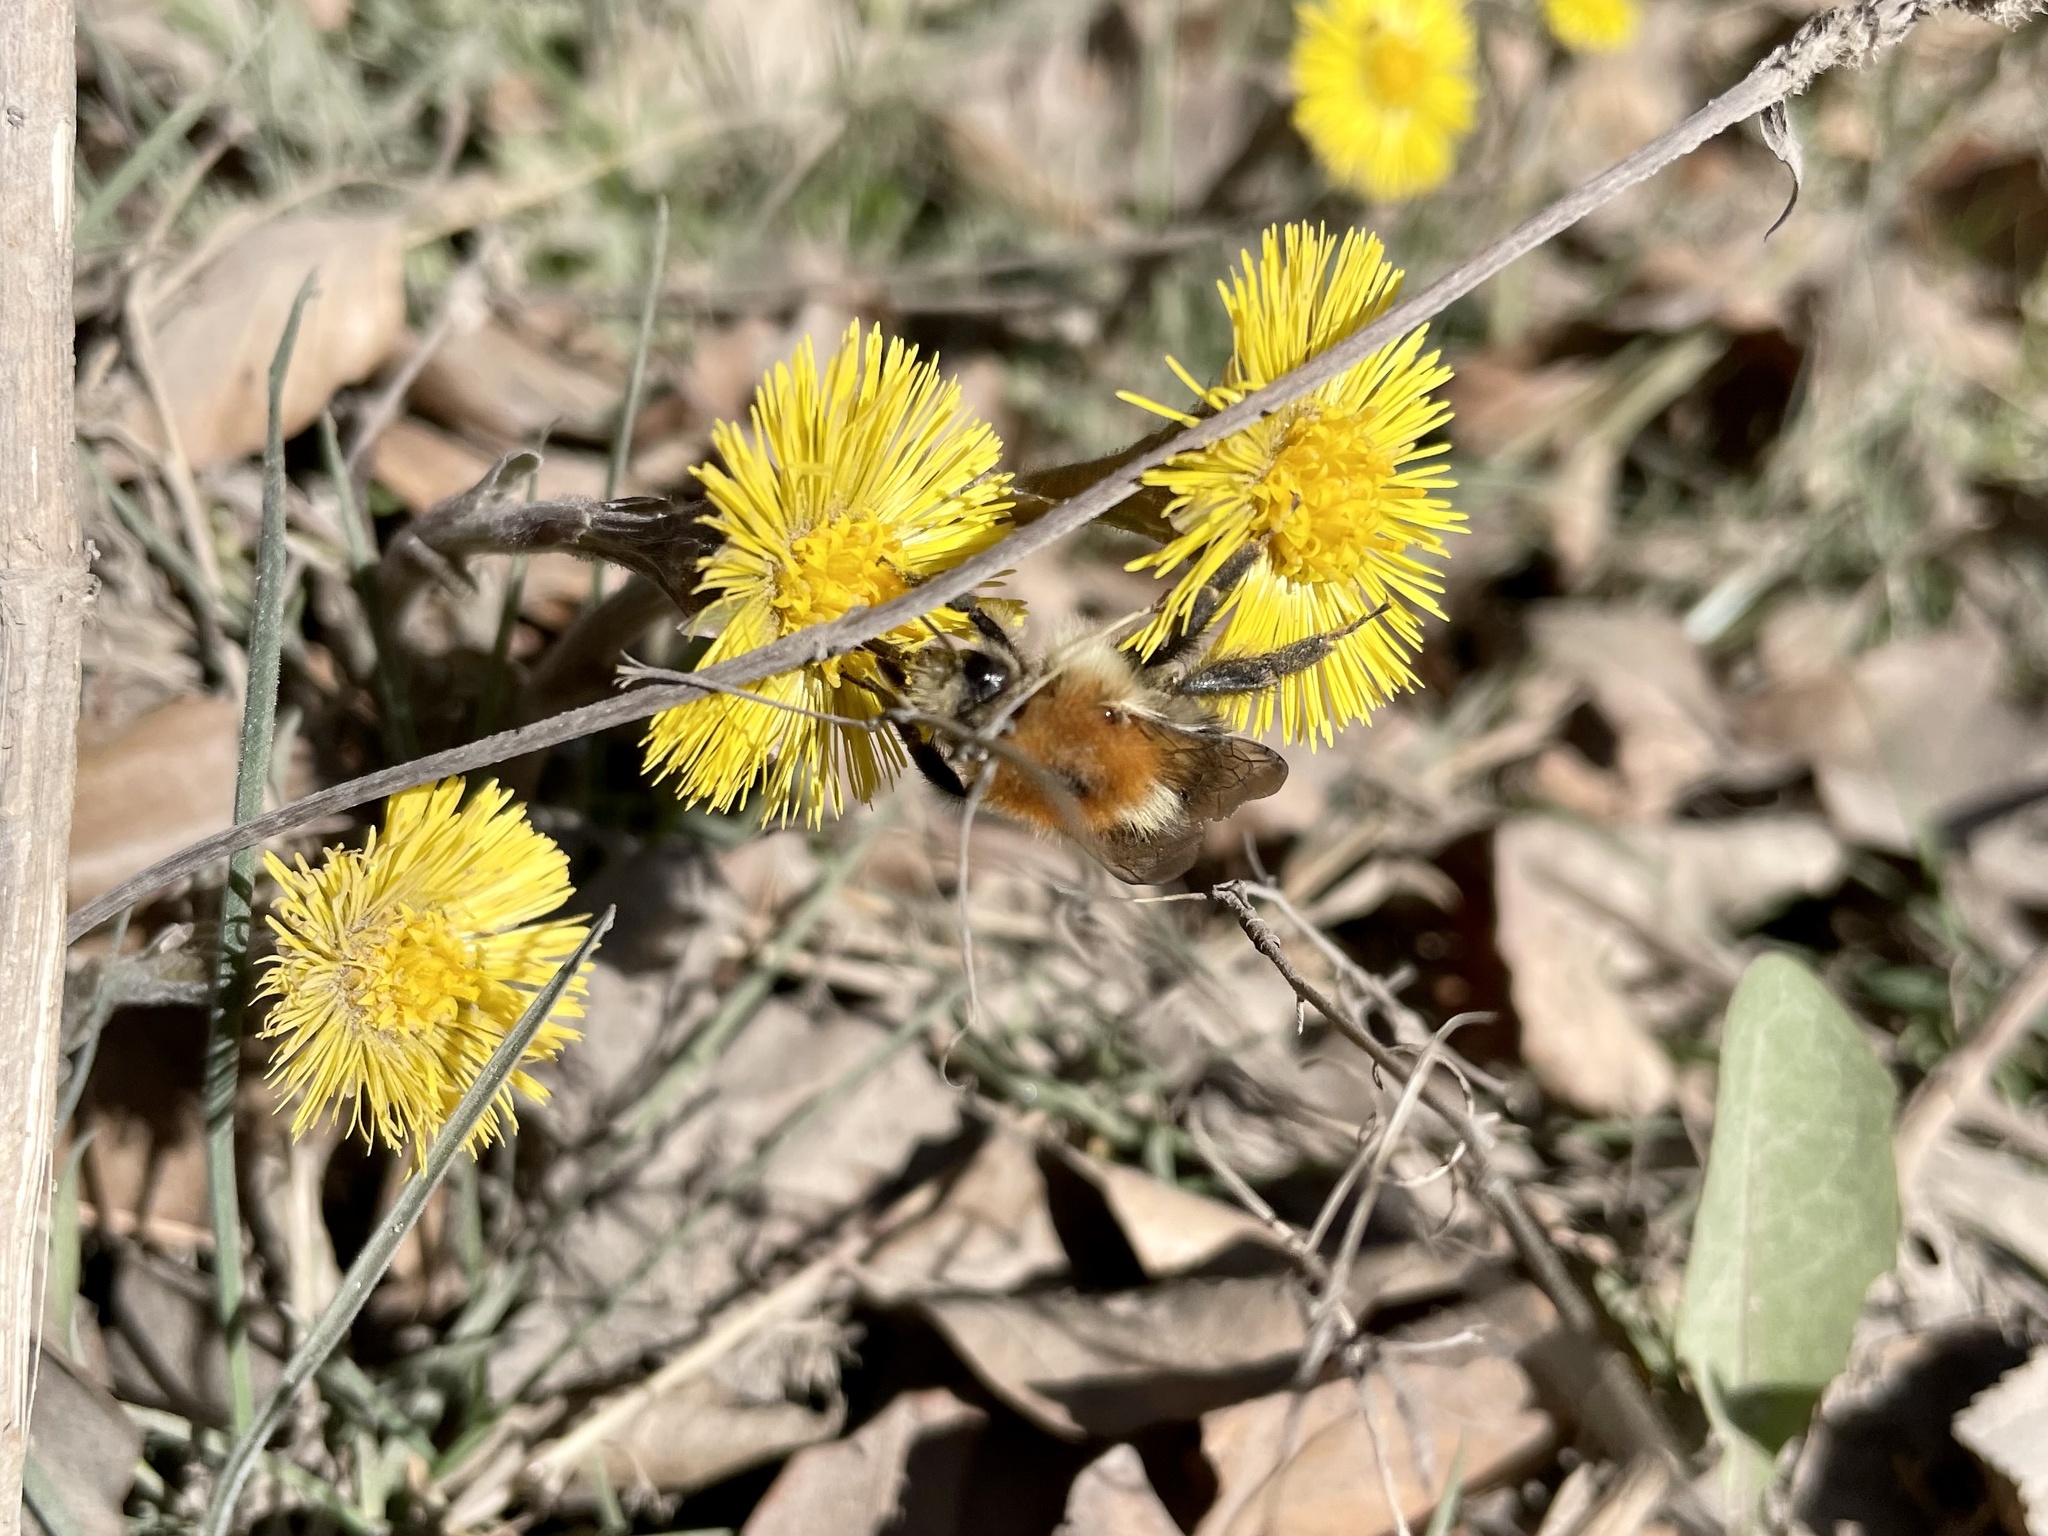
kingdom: Animalia
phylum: Arthropoda
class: Insecta
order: Hymenoptera
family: Apidae
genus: Bombus
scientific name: Bombus pascuorum
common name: Common carder bee
